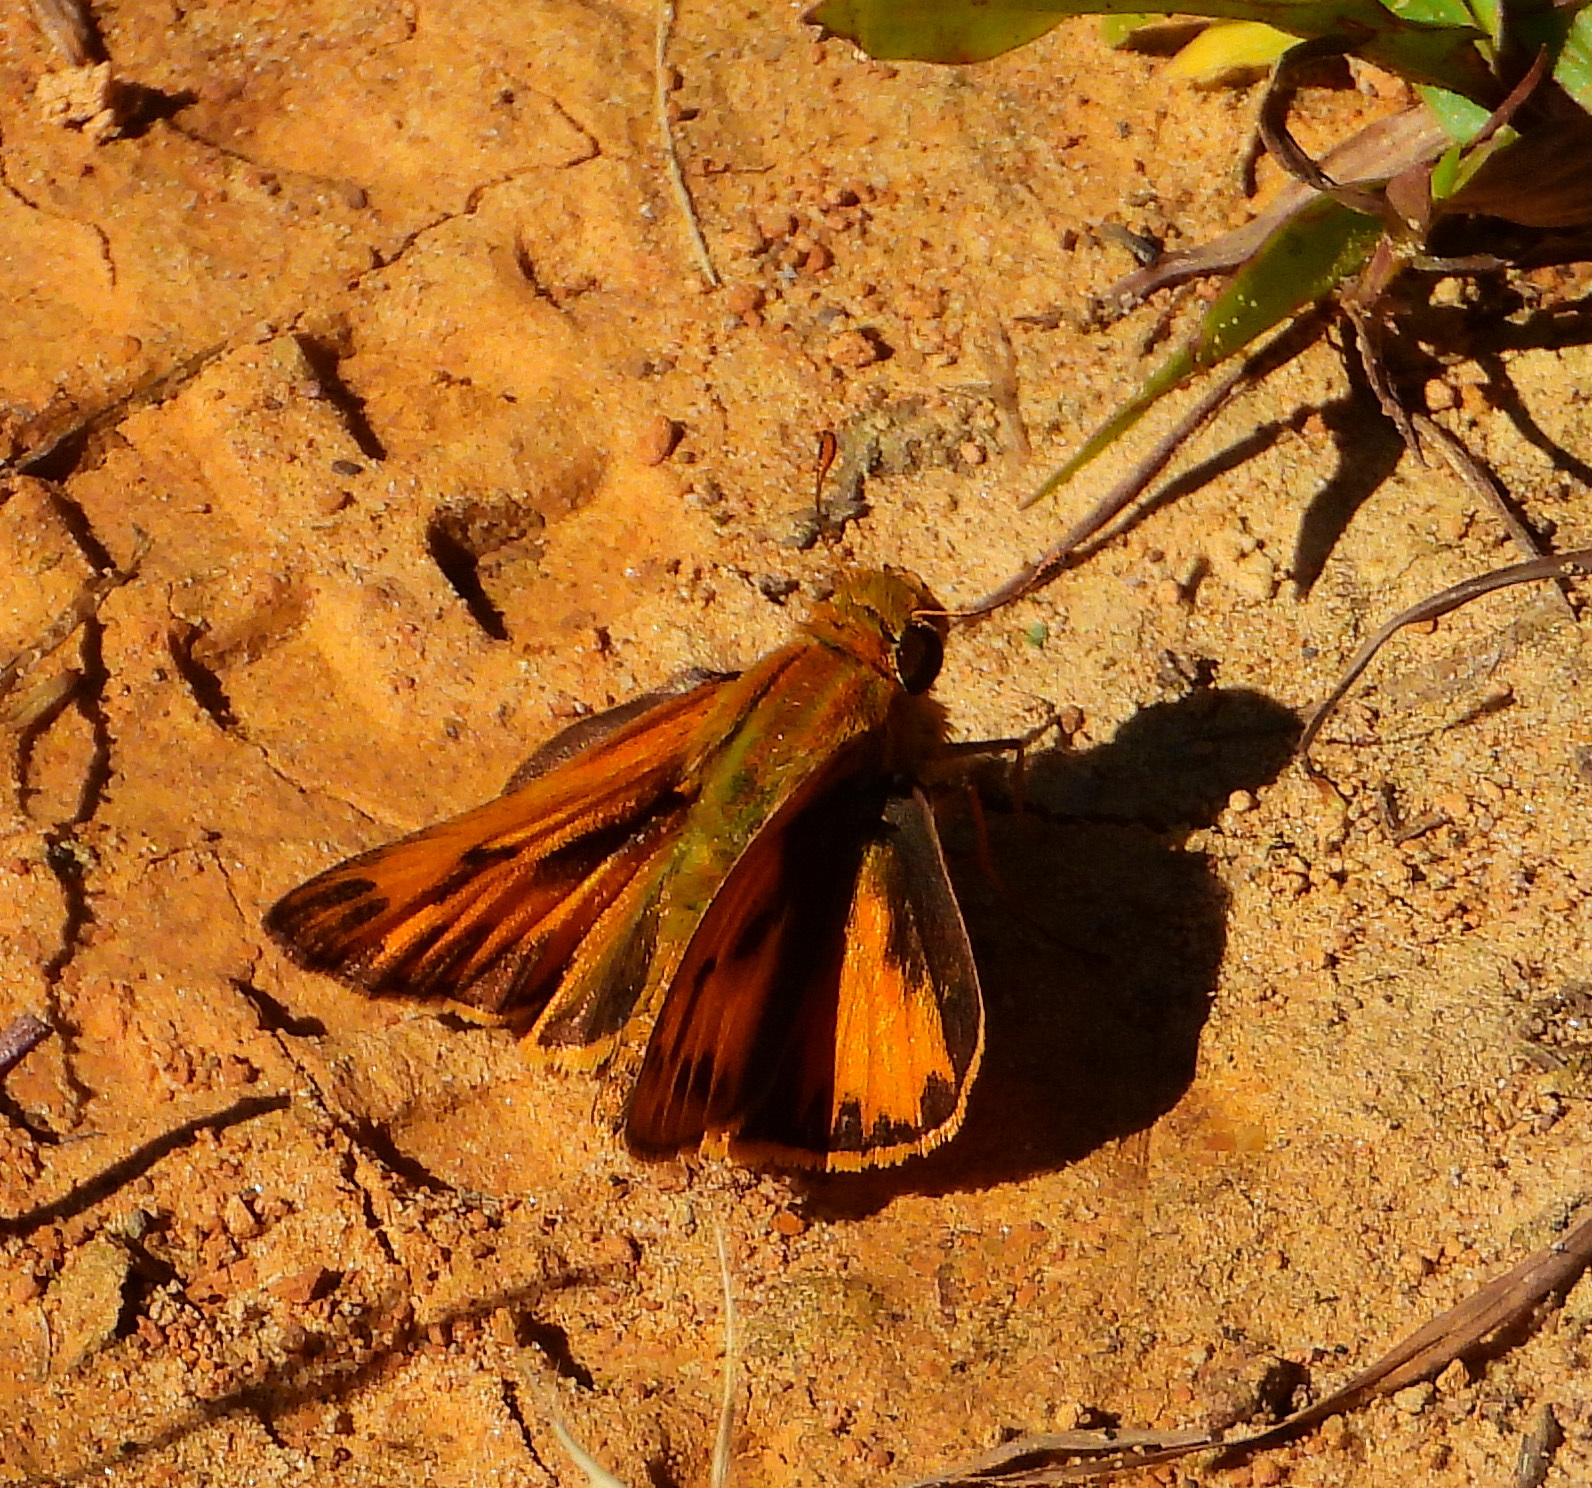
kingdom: Animalia
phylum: Arthropoda
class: Insecta
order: Lepidoptera
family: Hesperiidae
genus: Hylephila
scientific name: Hylephila phyleus
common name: Fiery skipper
